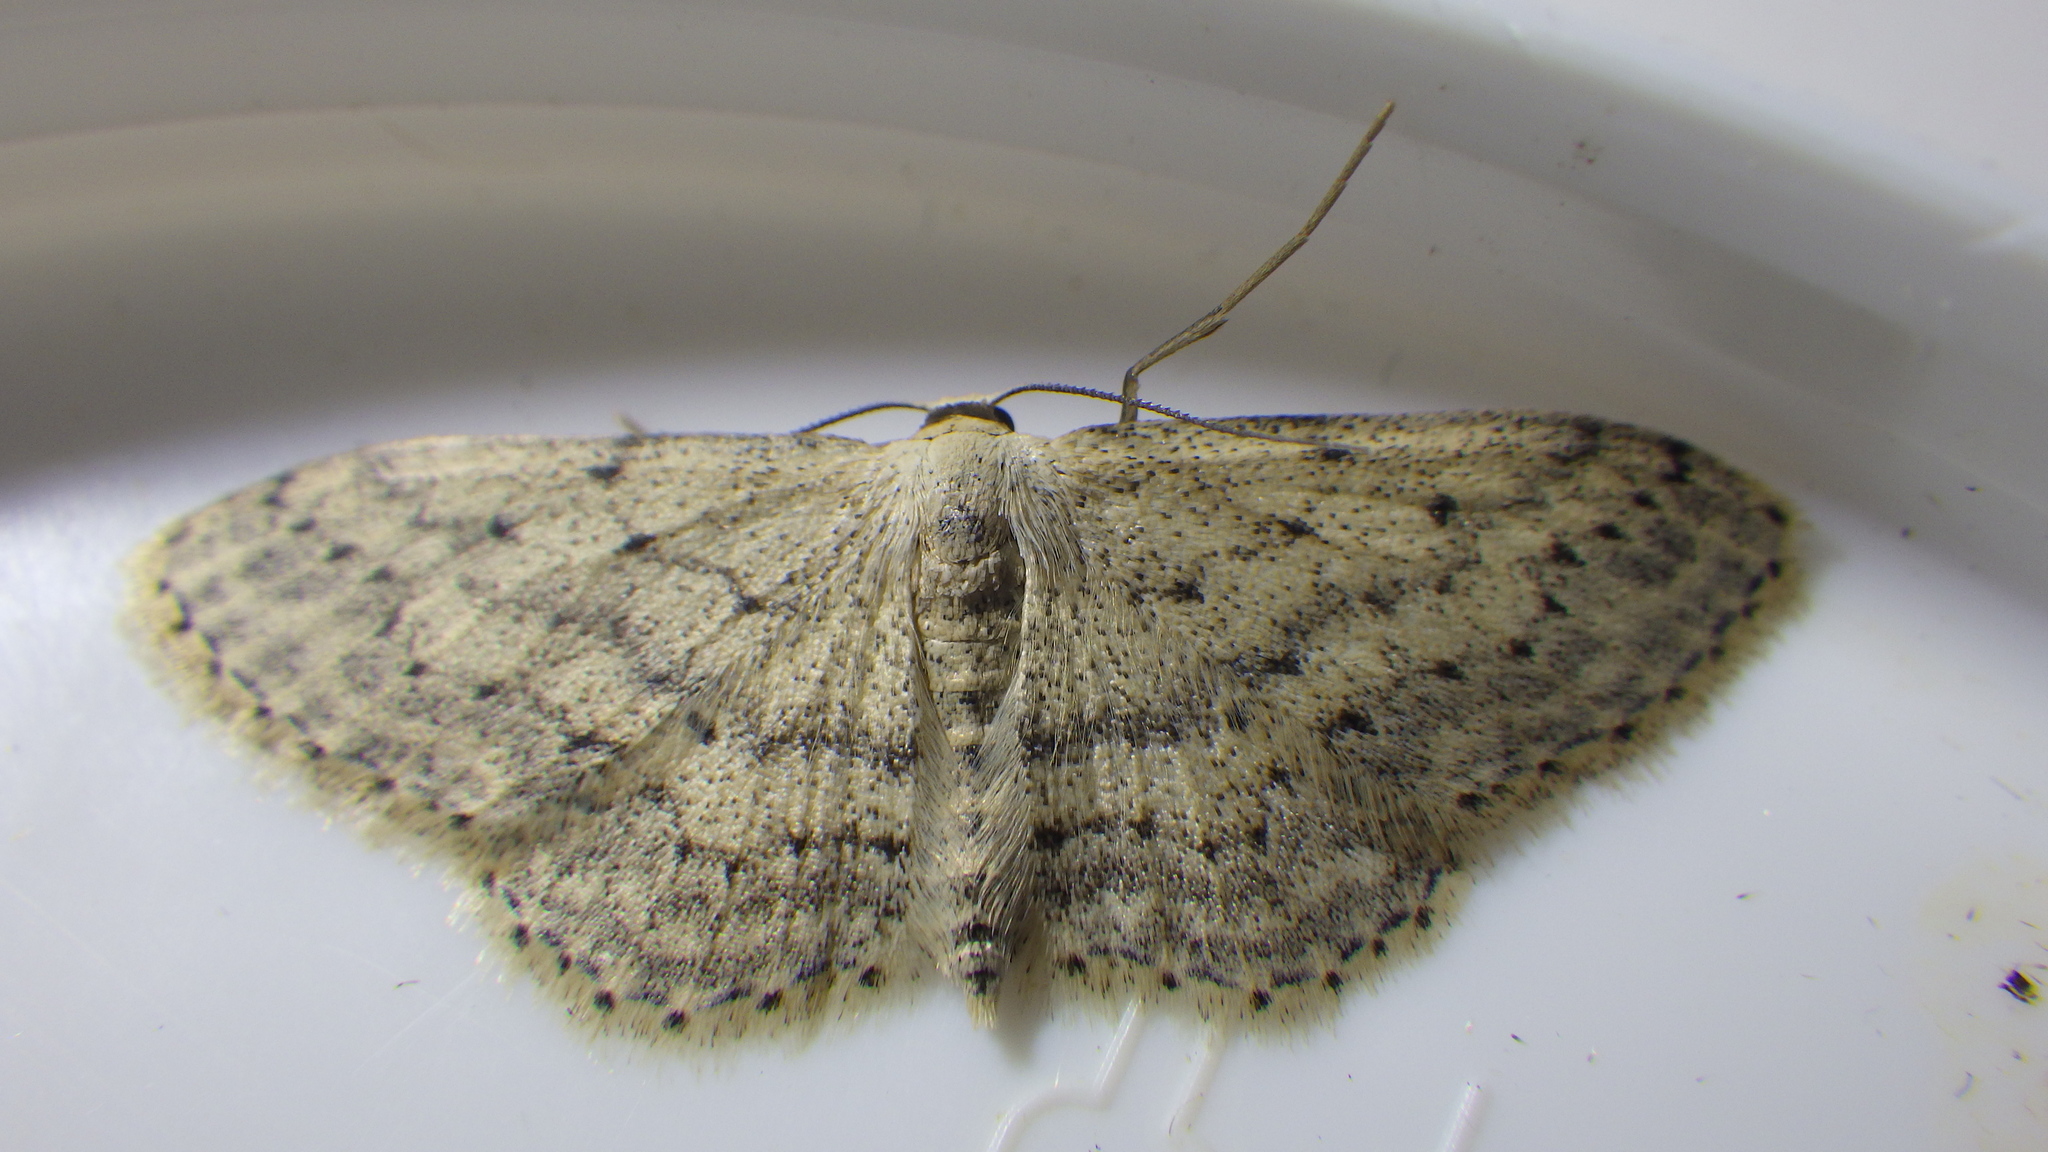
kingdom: Animalia
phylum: Arthropoda
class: Insecta
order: Lepidoptera
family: Geometridae
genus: Idaea
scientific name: Idaea seriata
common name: Small dusty wave
